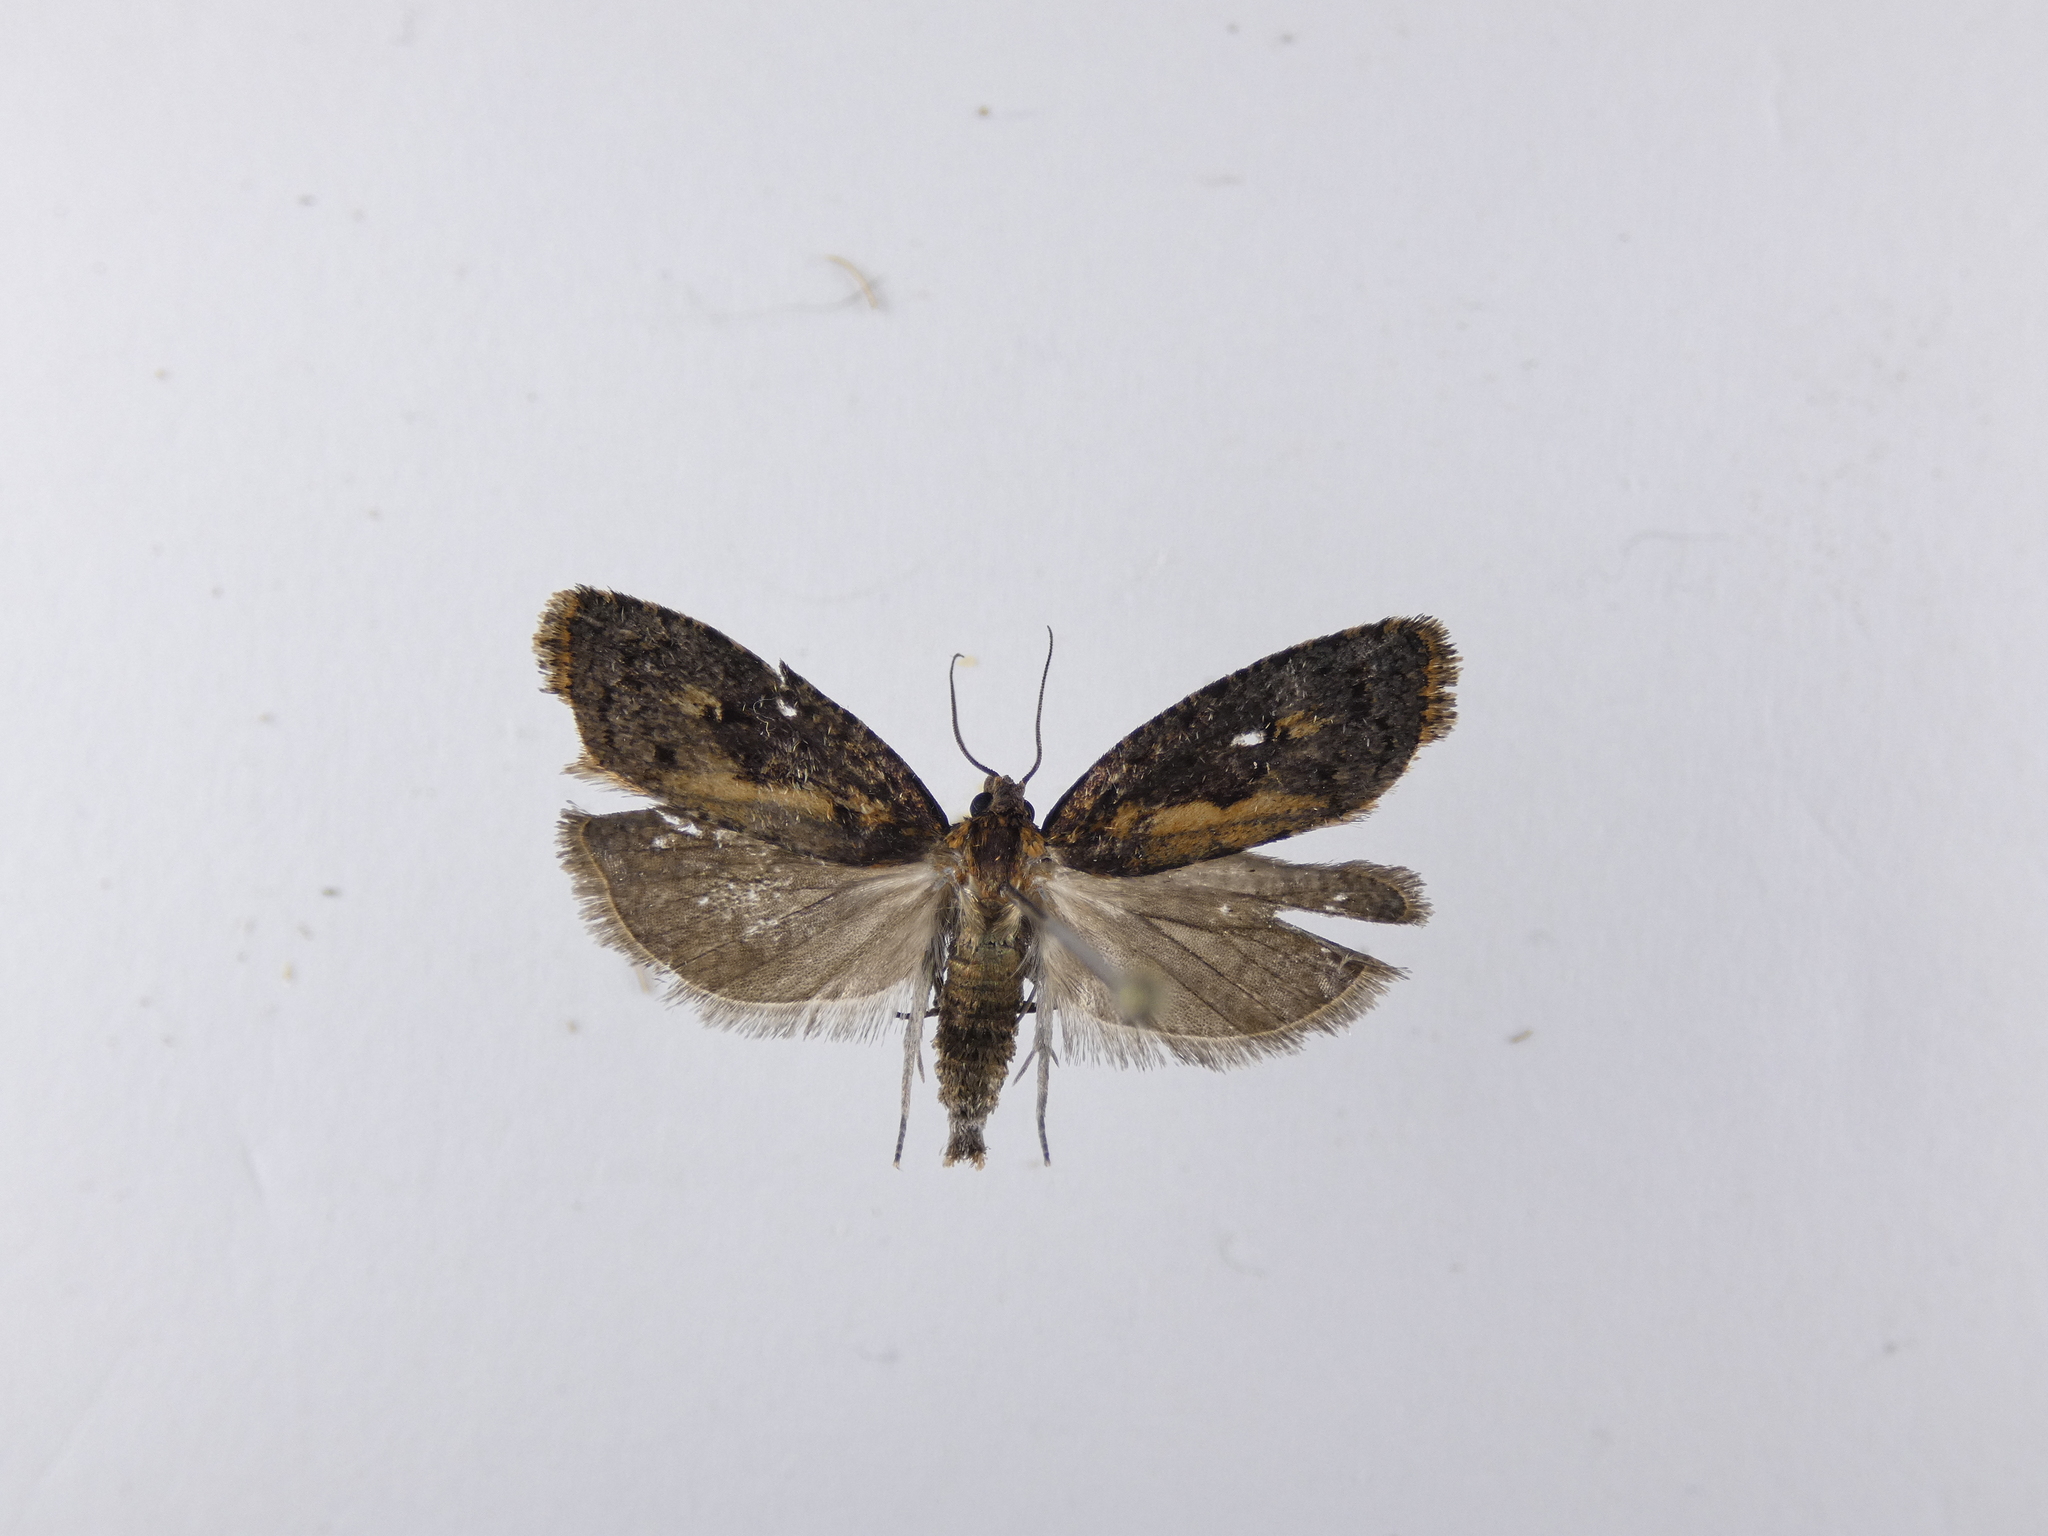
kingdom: Animalia
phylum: Arthropoda
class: Insecta
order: Lepidoptera
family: Tortricidae
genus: Cryptaspasma
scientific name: Cryptaspasma querula
